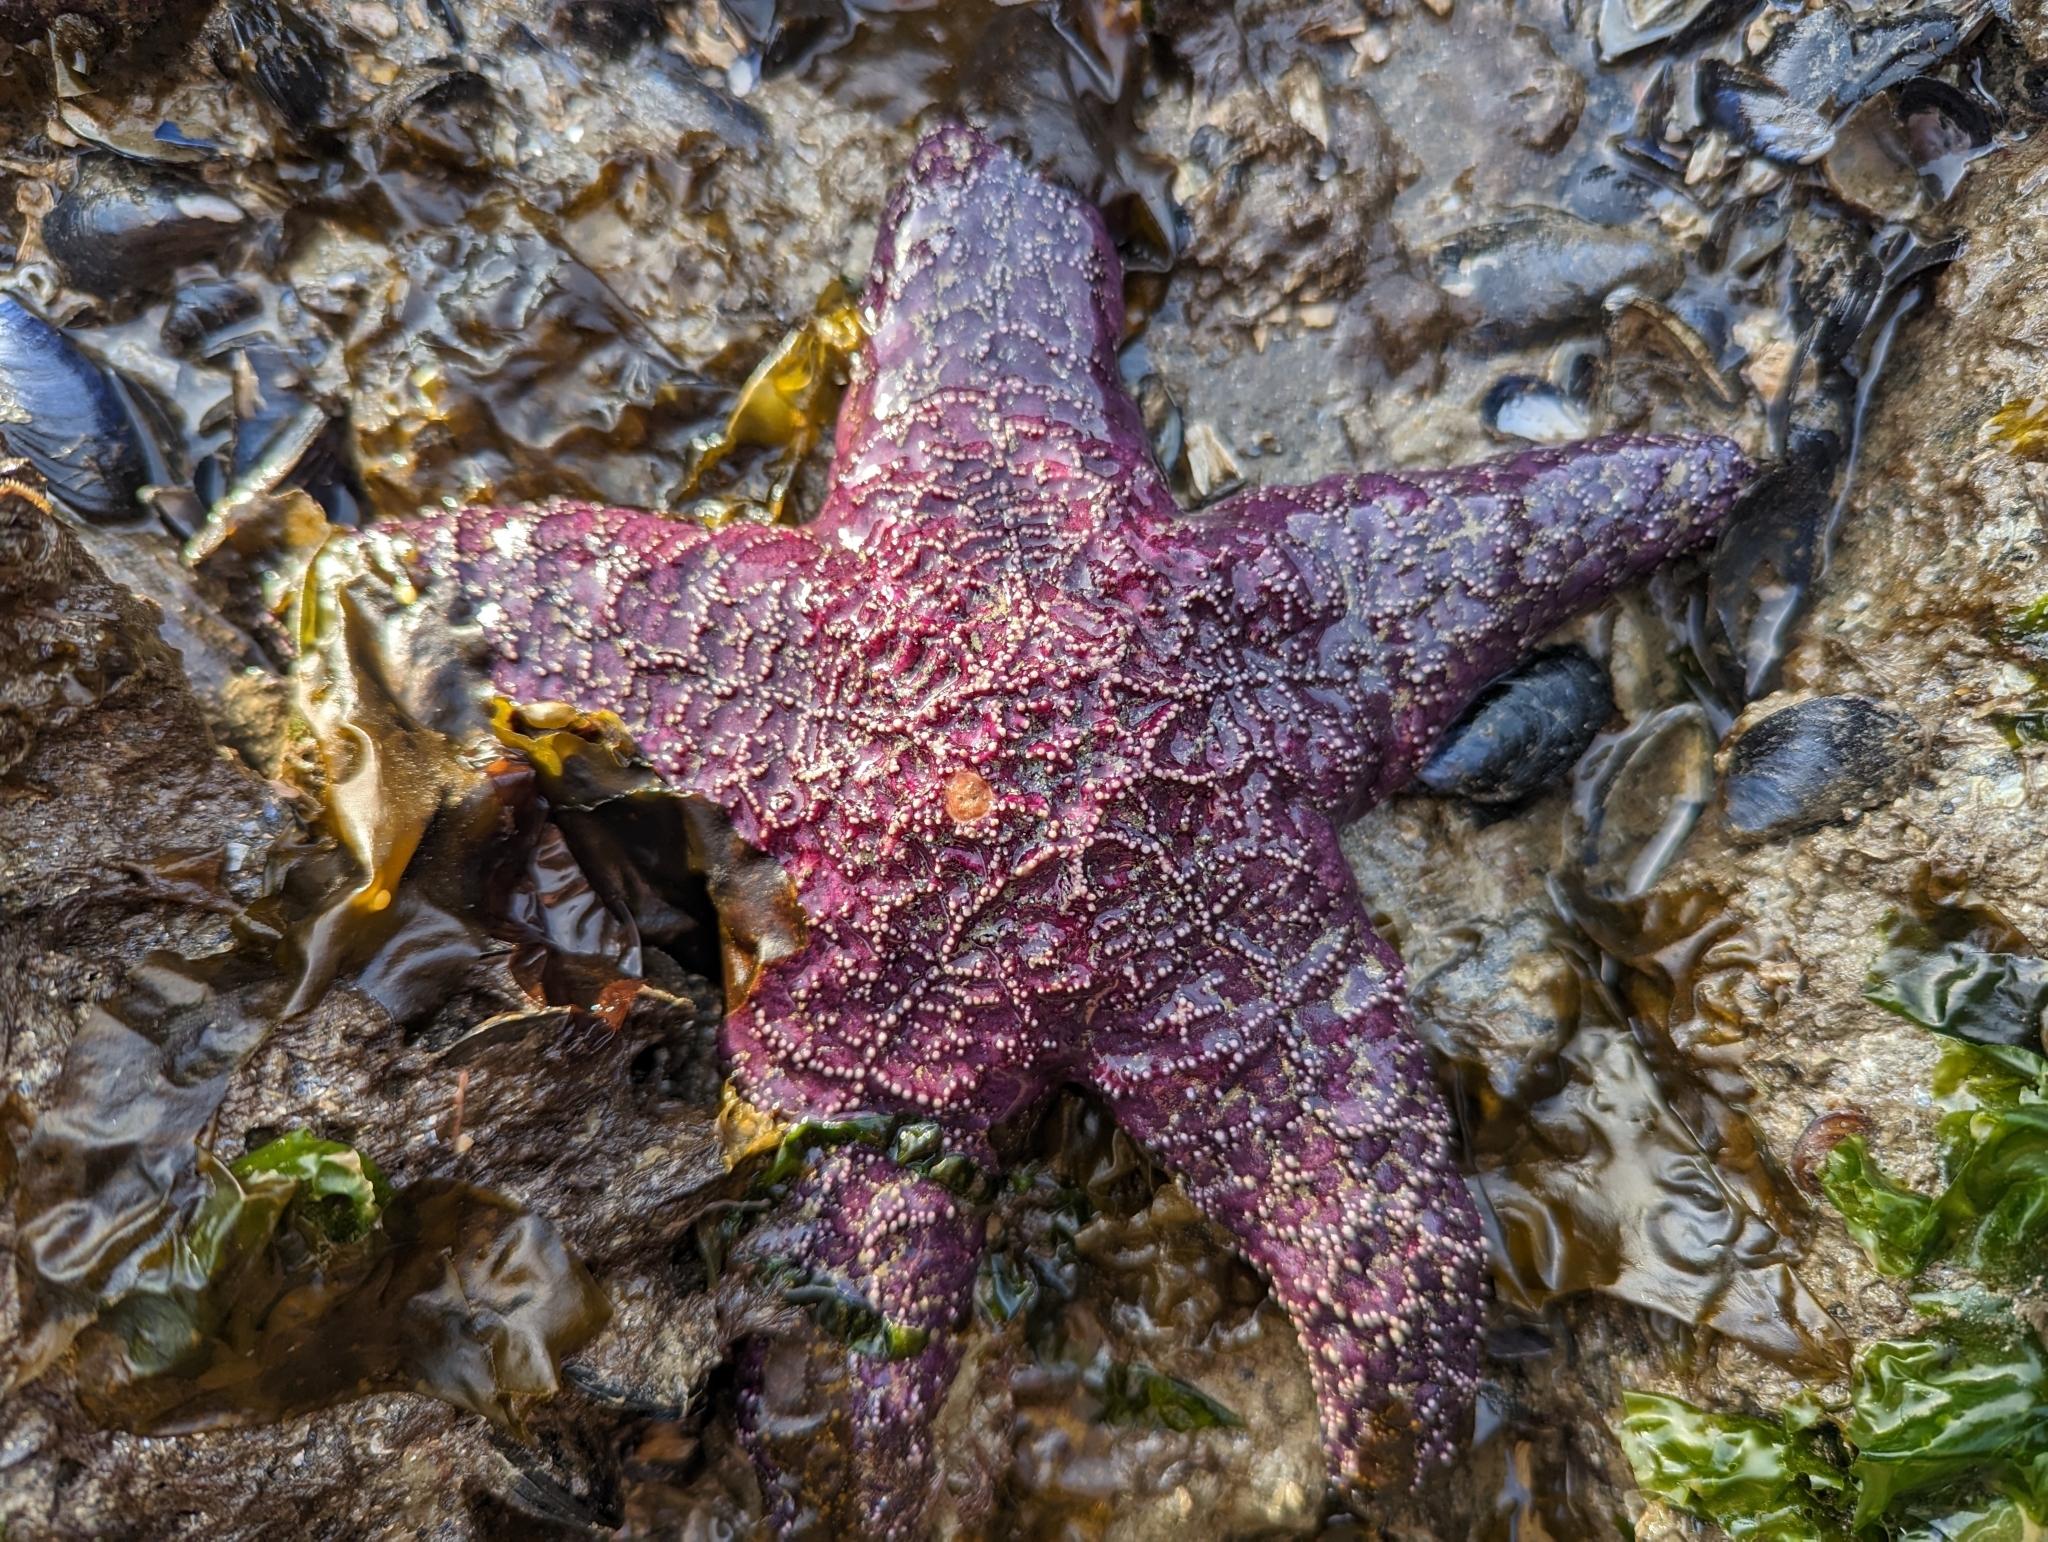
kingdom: Animalia
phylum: Echinodermata
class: Asteroidea
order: Forcipulatida
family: Asteriidae
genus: Pisaster
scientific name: Pisaster ochraceus
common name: Ochre stars
